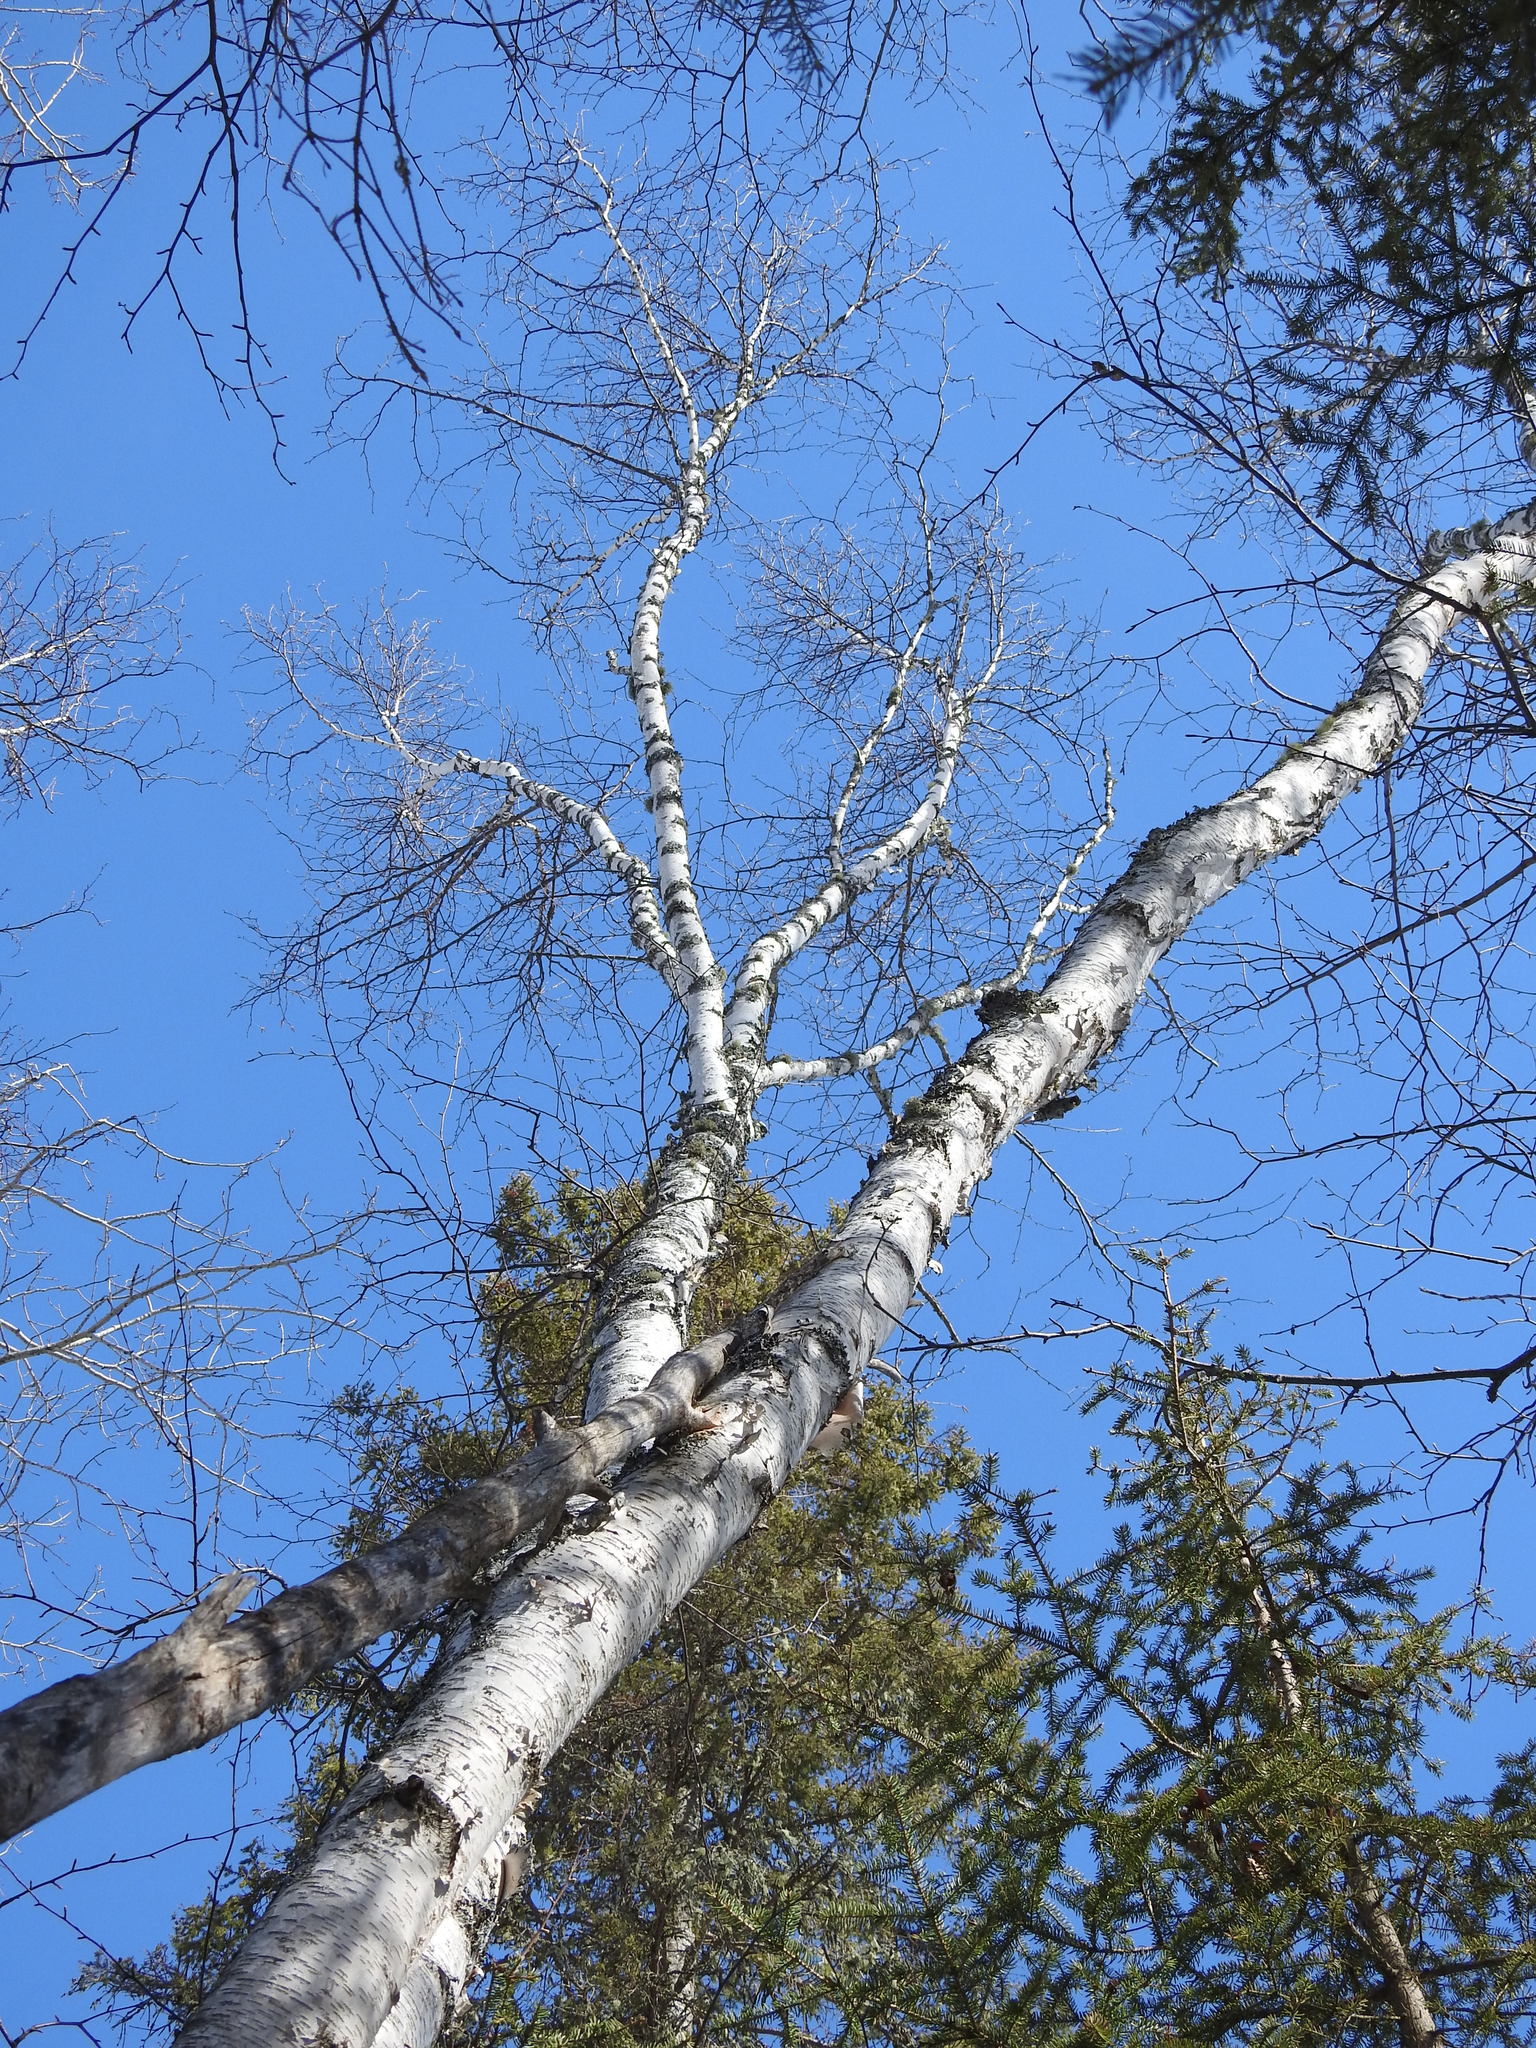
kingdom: Plantae
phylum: Tracheophyta
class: Magnoliopsida
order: Fagales
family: Betulaceae
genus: Betula
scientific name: Betula papyrifera
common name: Paper birch
